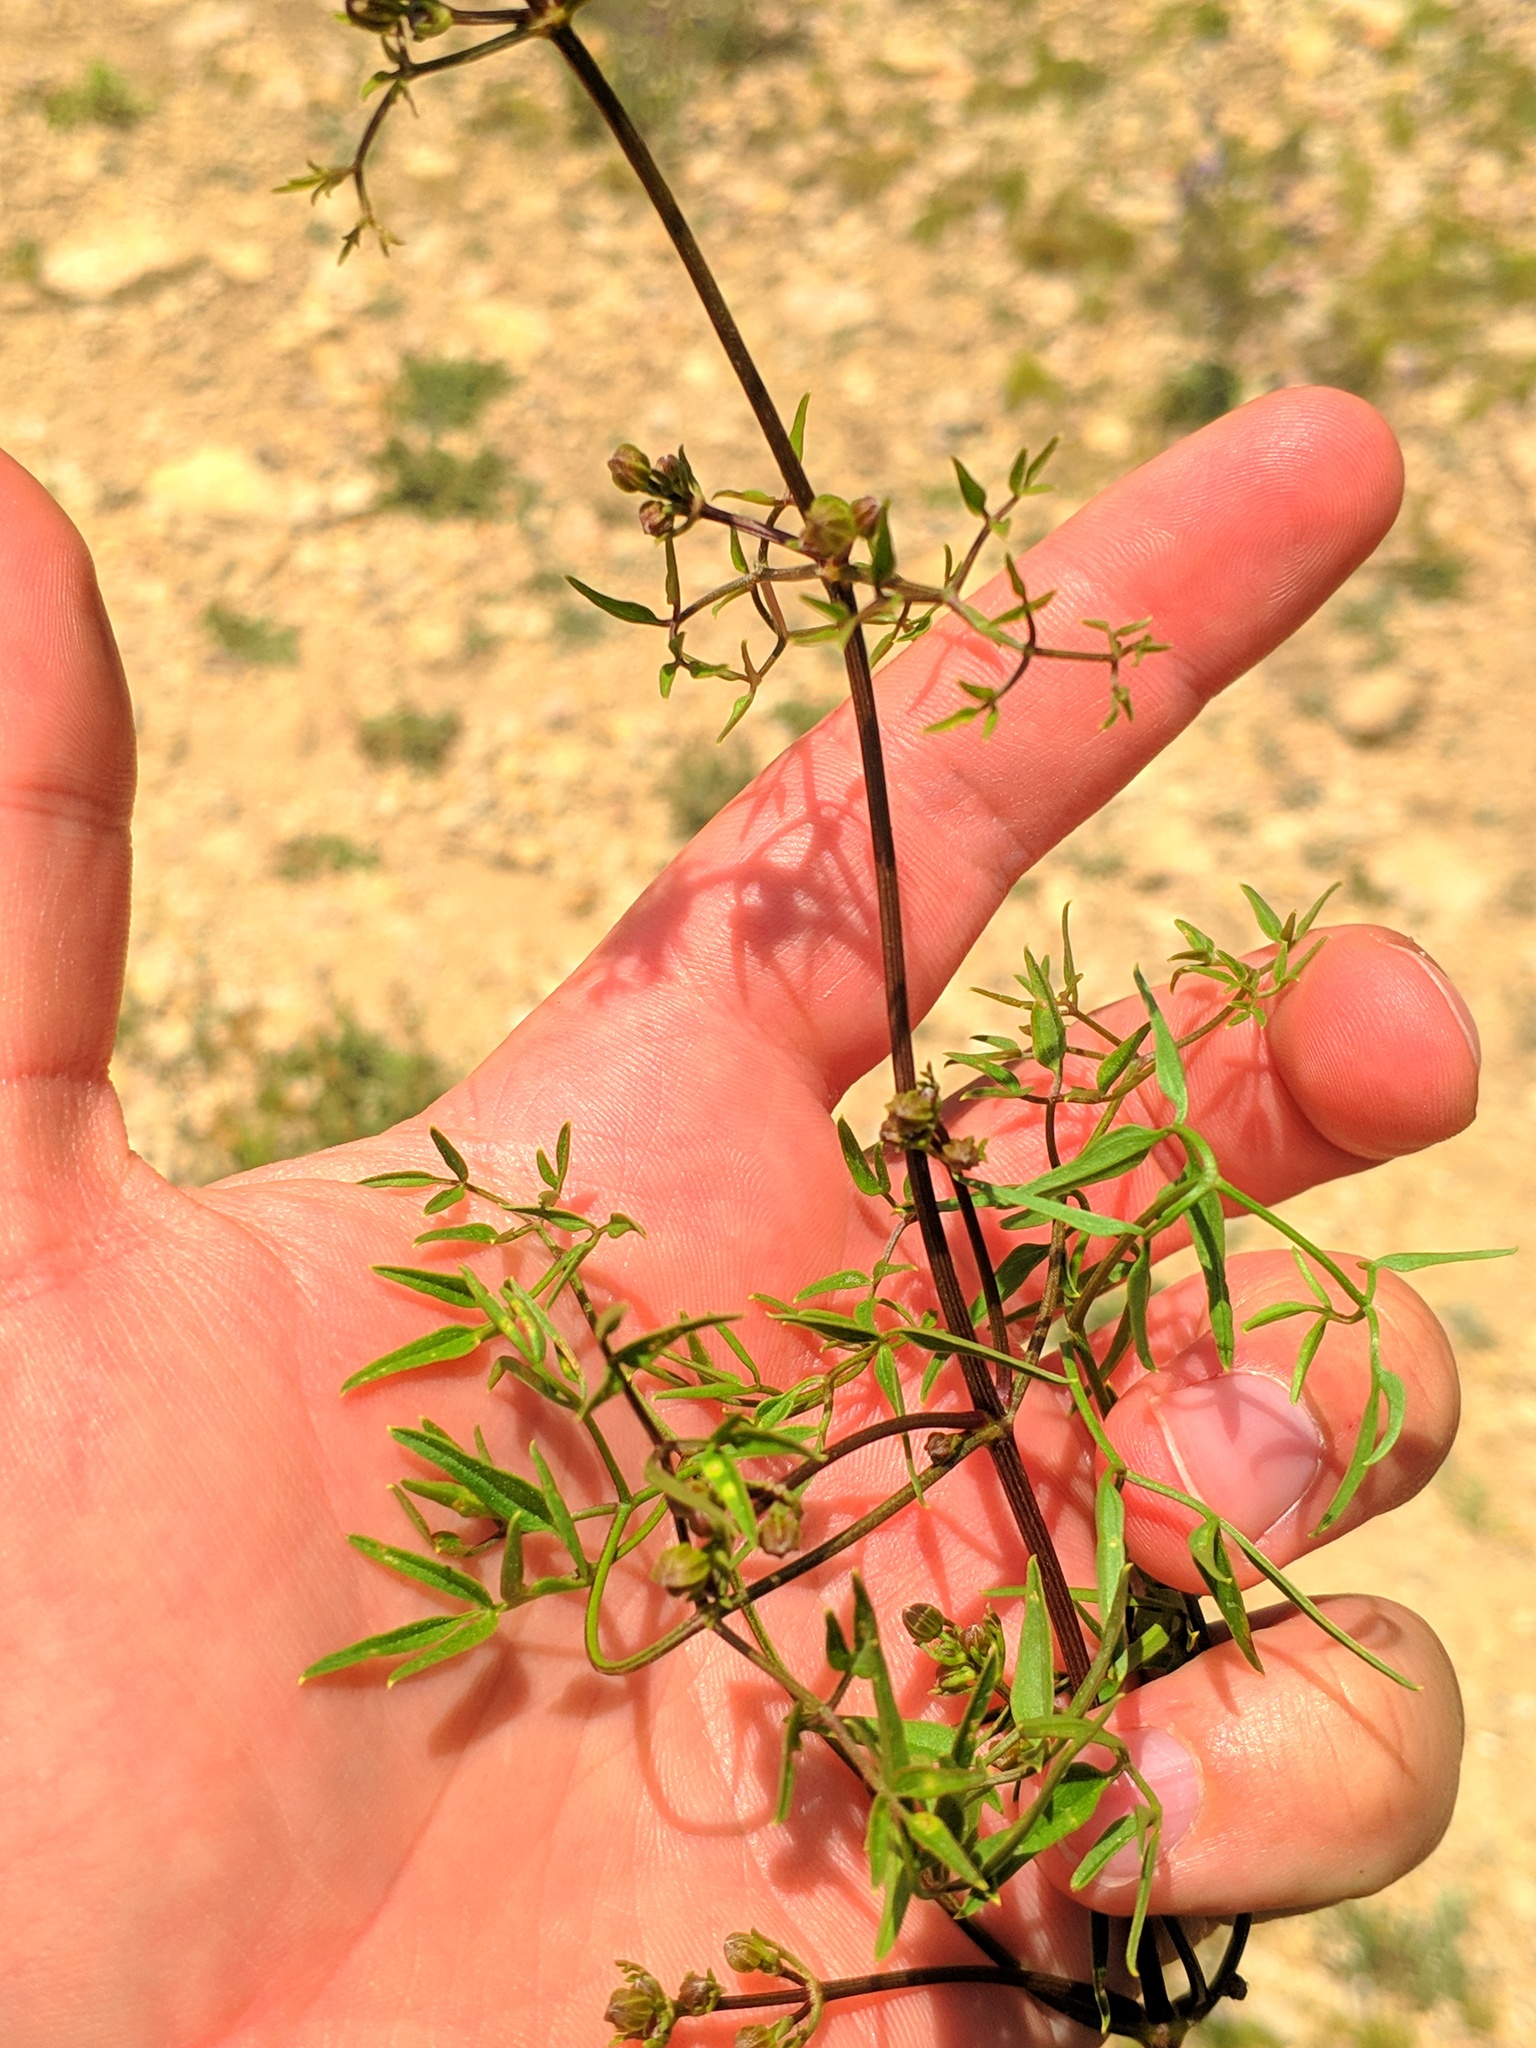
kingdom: Plantae
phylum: Tracheophyta
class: Magnoliopsida
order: Ranunculales
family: Ranunculaceae
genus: Clematis
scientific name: Clematis flammula
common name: Virgin's-bower
